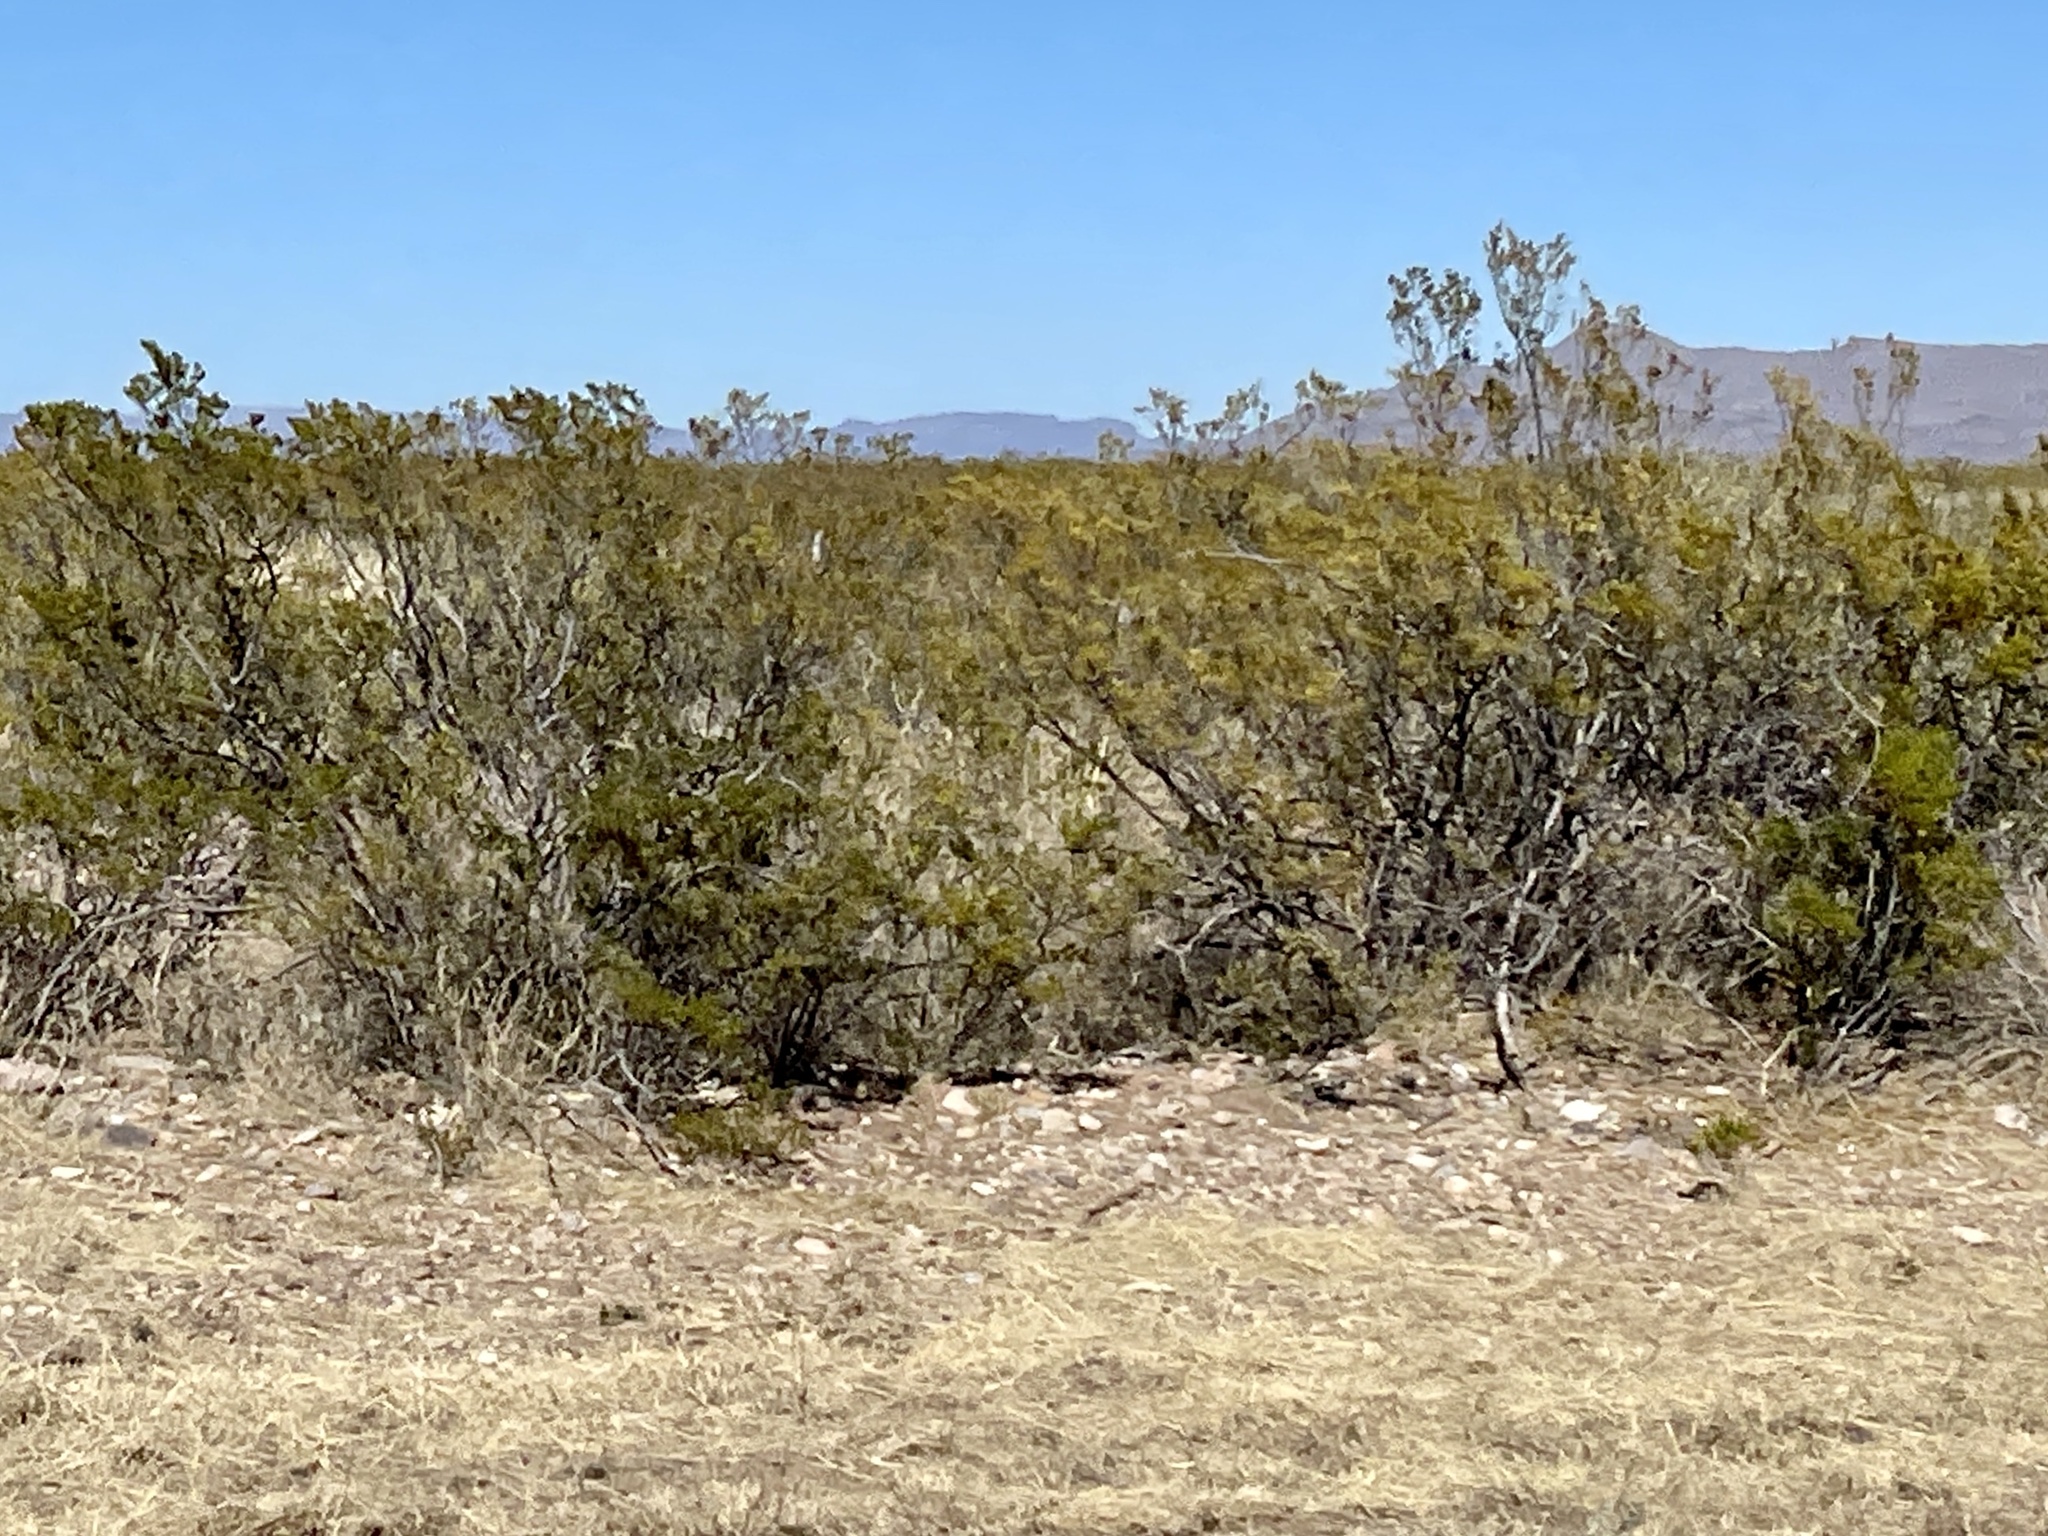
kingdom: Plantae
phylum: Tracheophyta
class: Magnoliopsida
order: Zygophyllales
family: Zygophyllaceae
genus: Larrea
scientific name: Larrea tridentata
